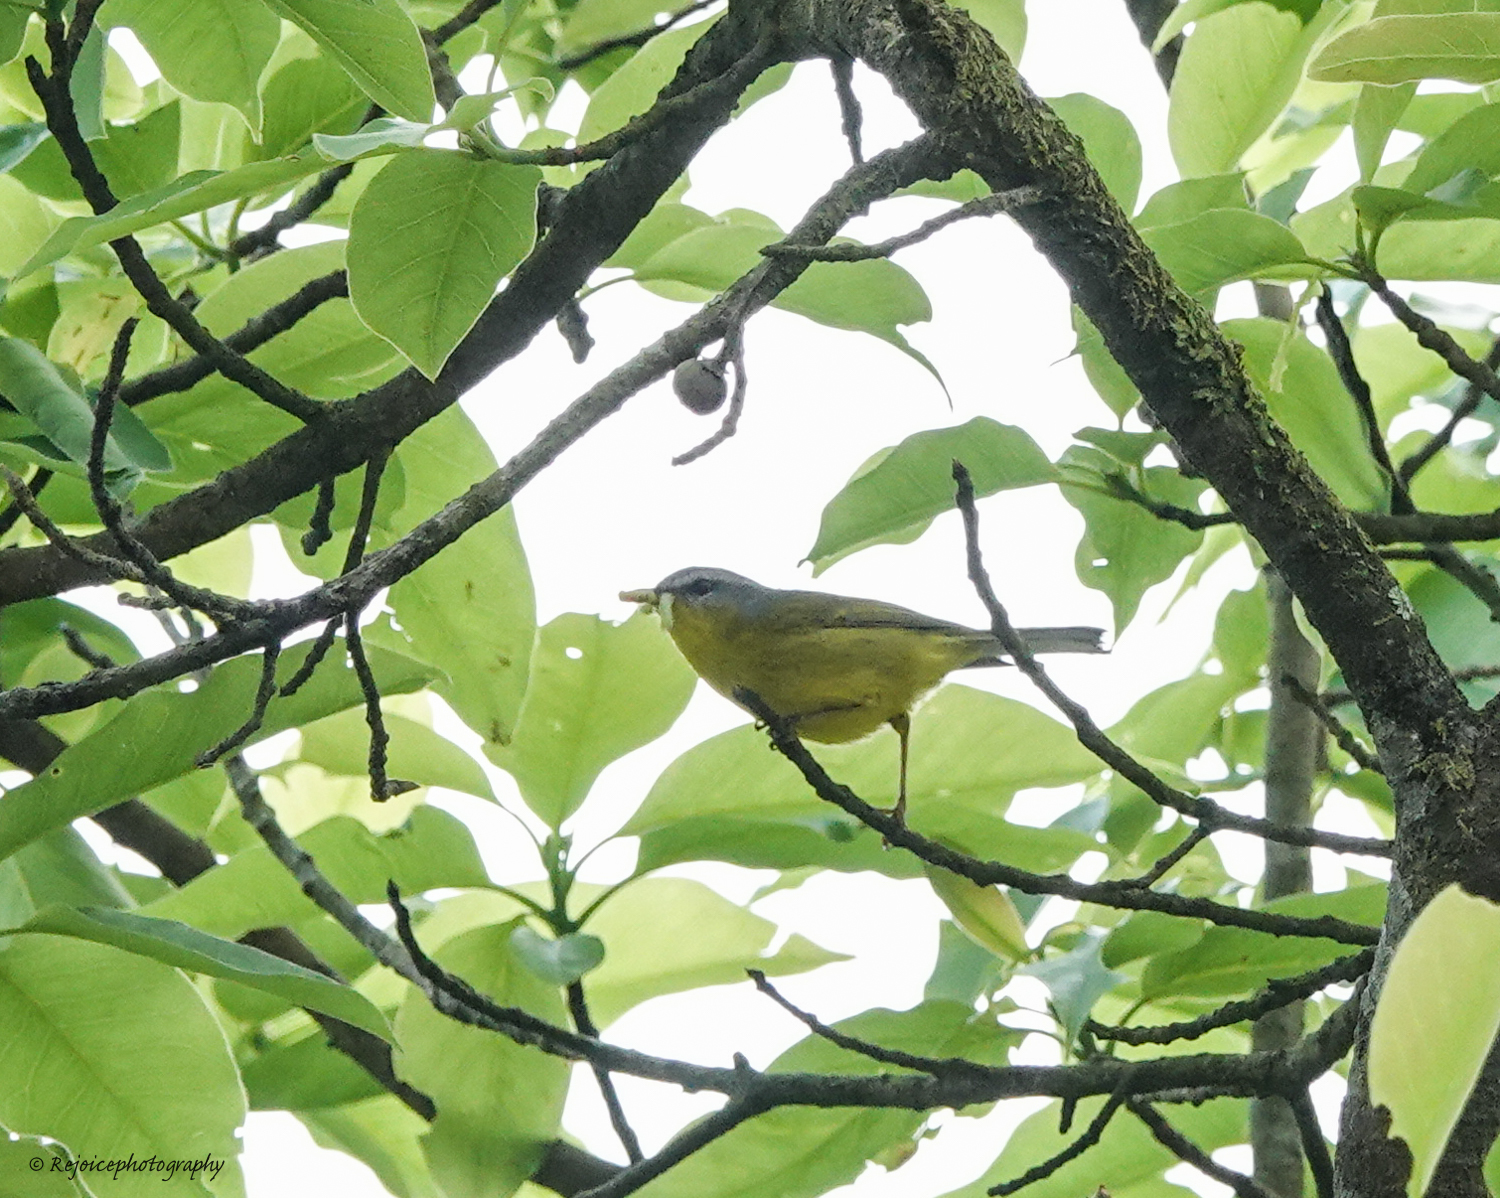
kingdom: Animalia
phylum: Chordata
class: Aves
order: Passeriformes
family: Phylloscopidae
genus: Phylloscopus
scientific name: Phylloscopus xanthoschistos
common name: Grey-hooded warbler
